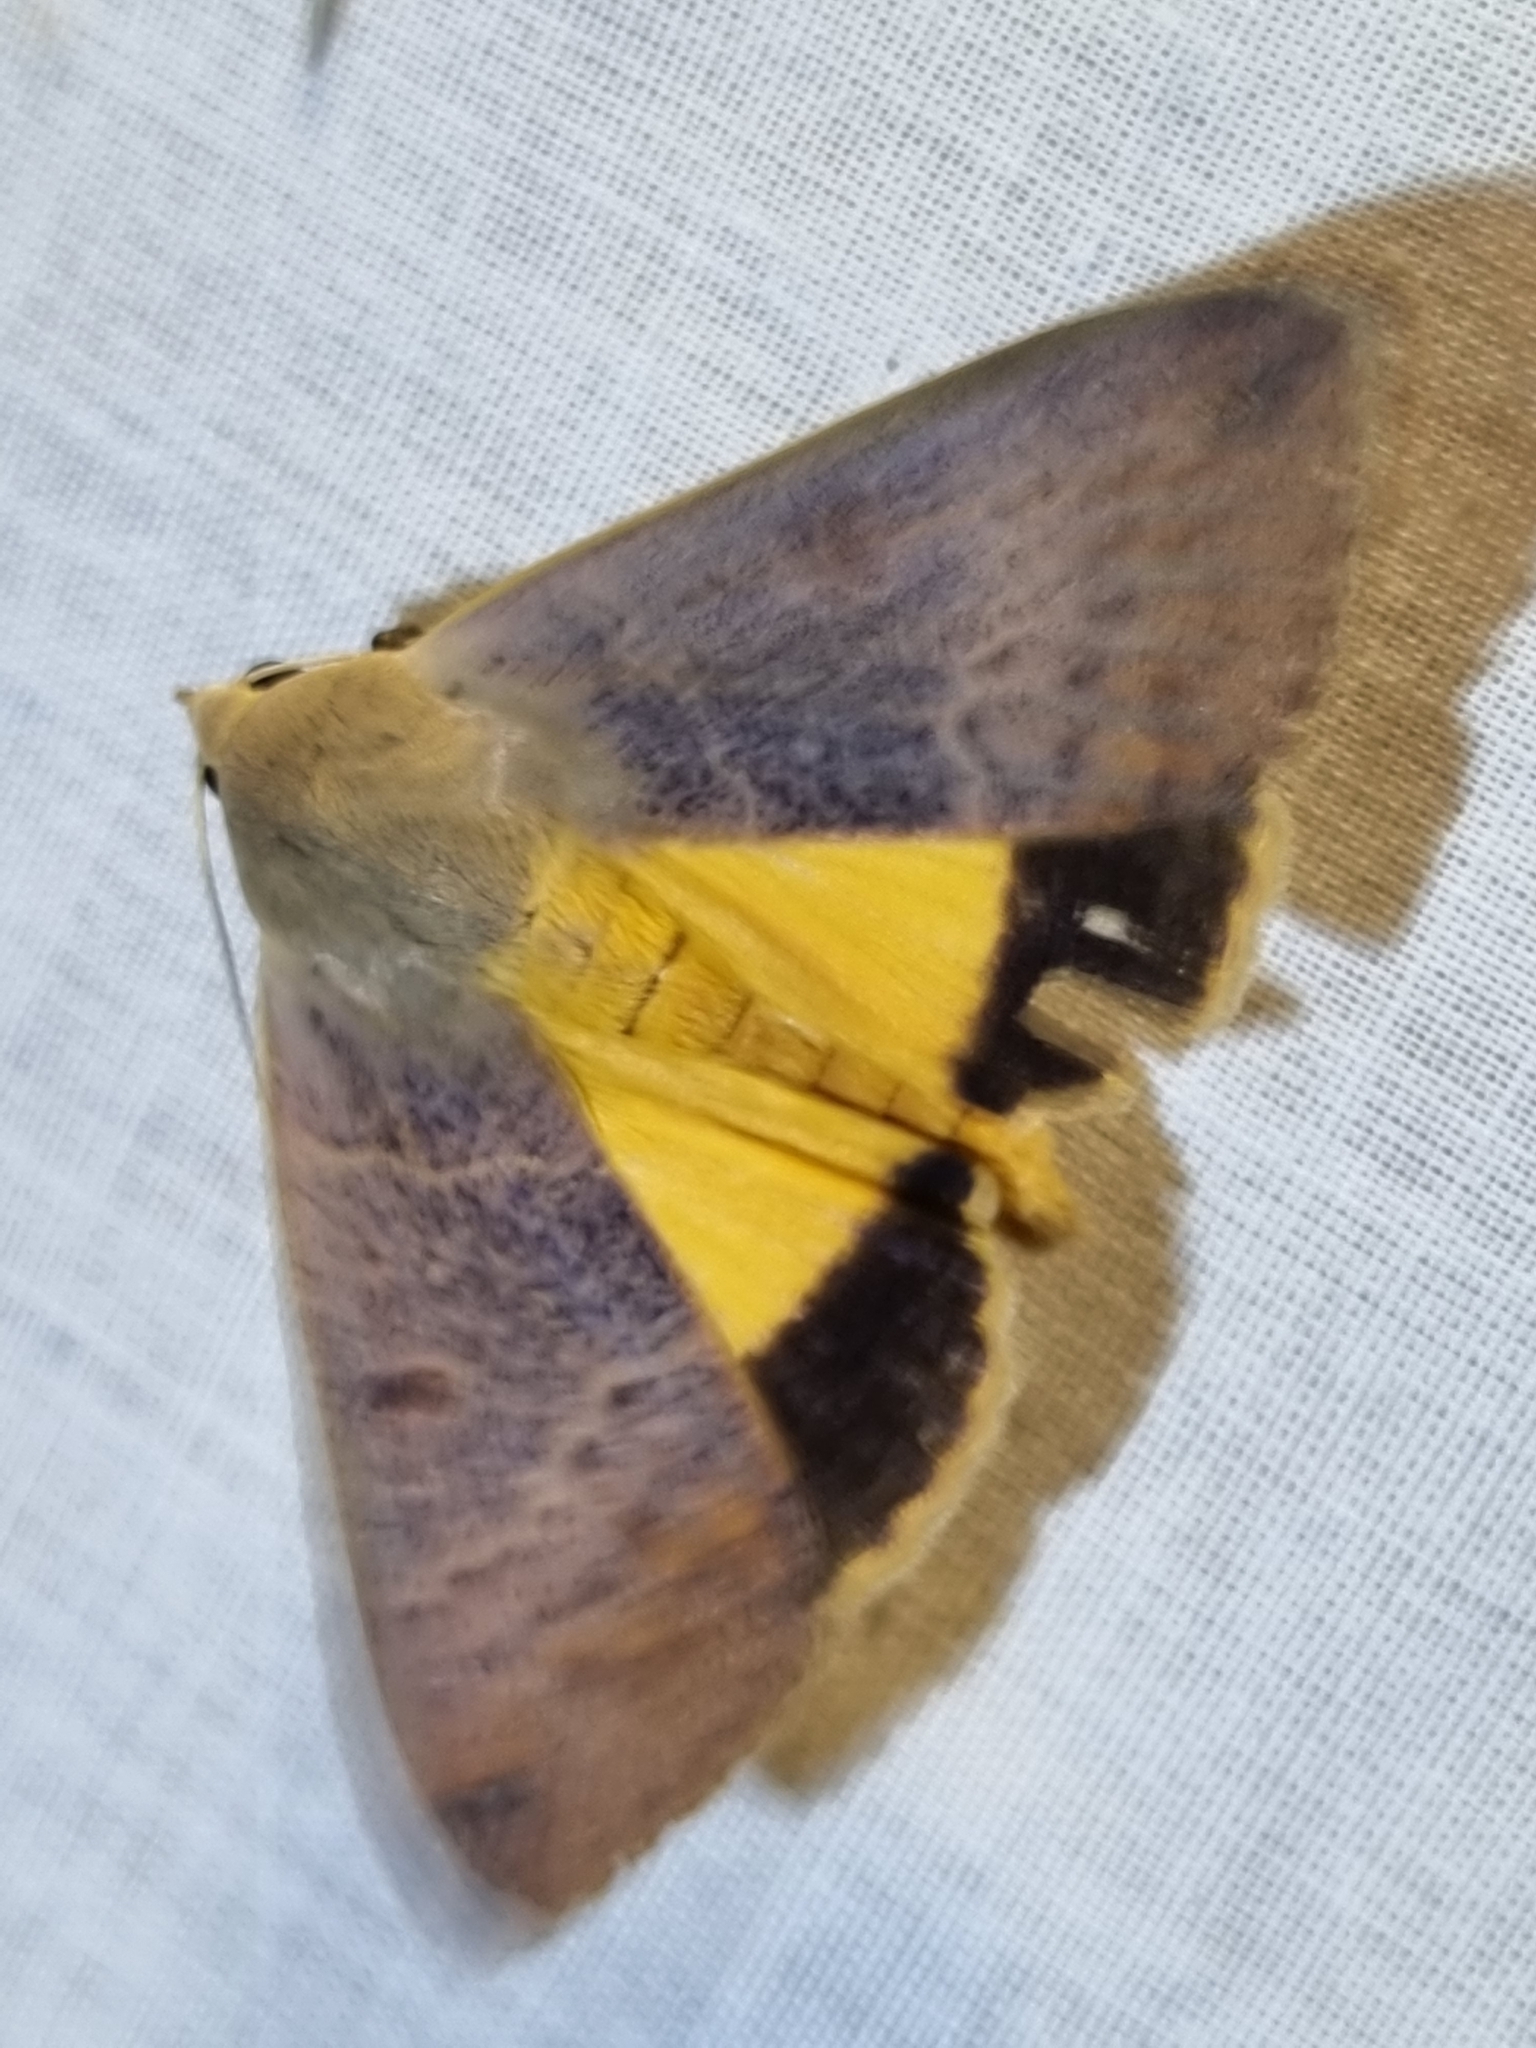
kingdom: Animalia
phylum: Arthropoda
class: Insecta
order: Lepidoptera
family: Erebidae
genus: Ophiusa
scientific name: Ophiusa disjungens
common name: Moth
